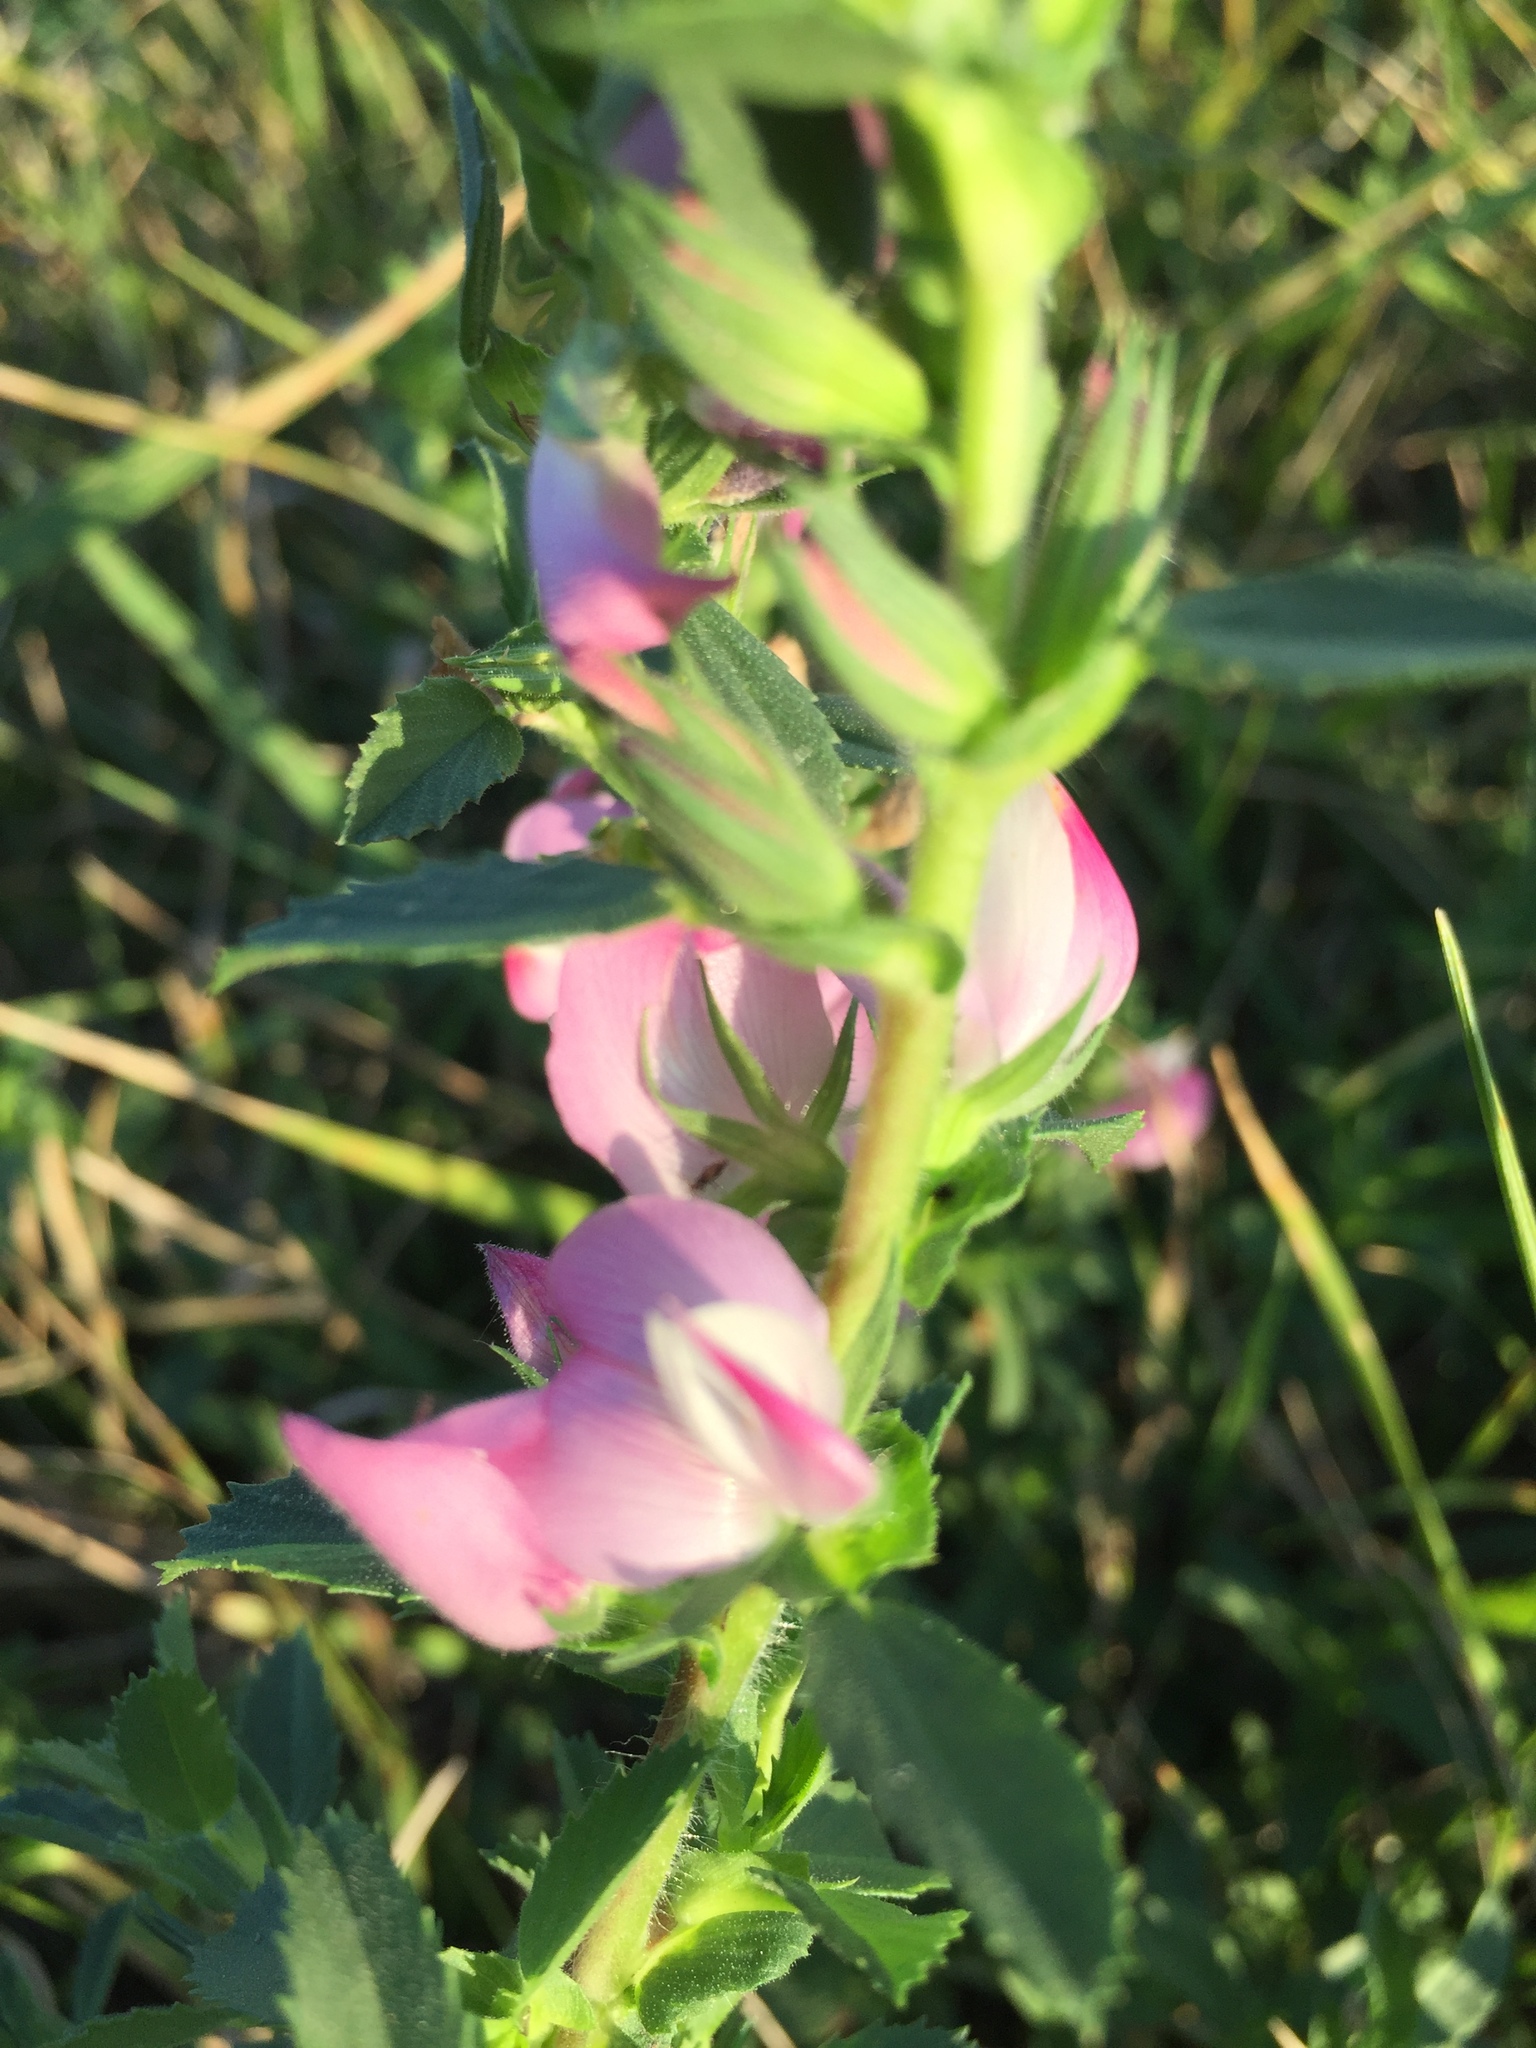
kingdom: Plantae
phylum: Tracheophyta
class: Magnoliopsida
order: Fabales
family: Fabaceae
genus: Ononis
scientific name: Ononis arvensis
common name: Field restharrow
